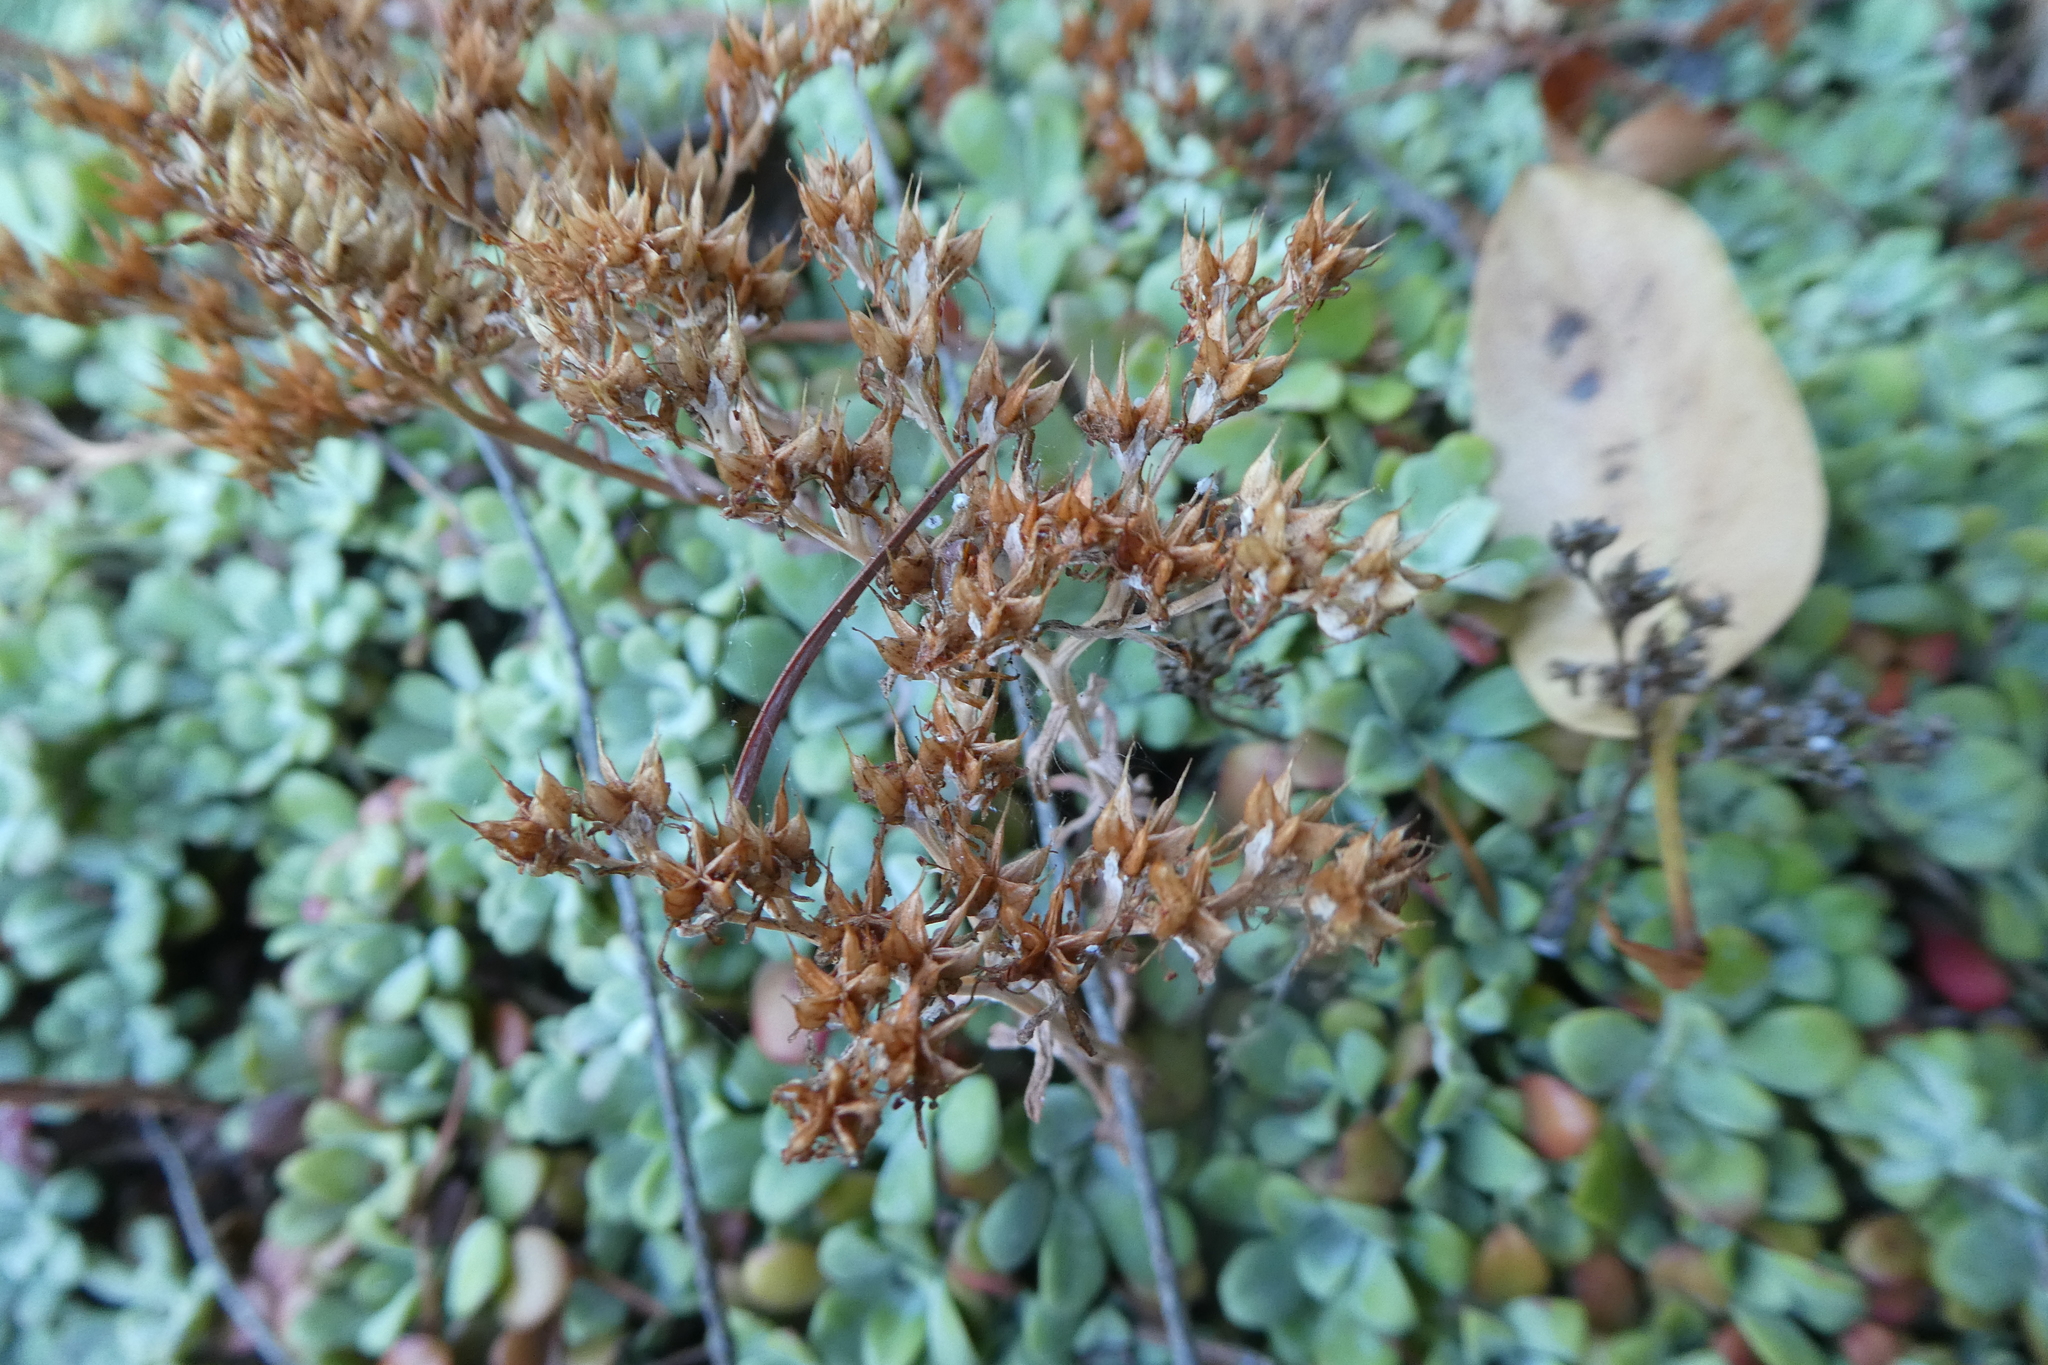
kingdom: Plantae
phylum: Tracheophyta
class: Magnoliopsida
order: Saxifragales
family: Crassulaceae
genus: Sedum
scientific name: Sedum spathulifolium
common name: Colorado stonecrop
